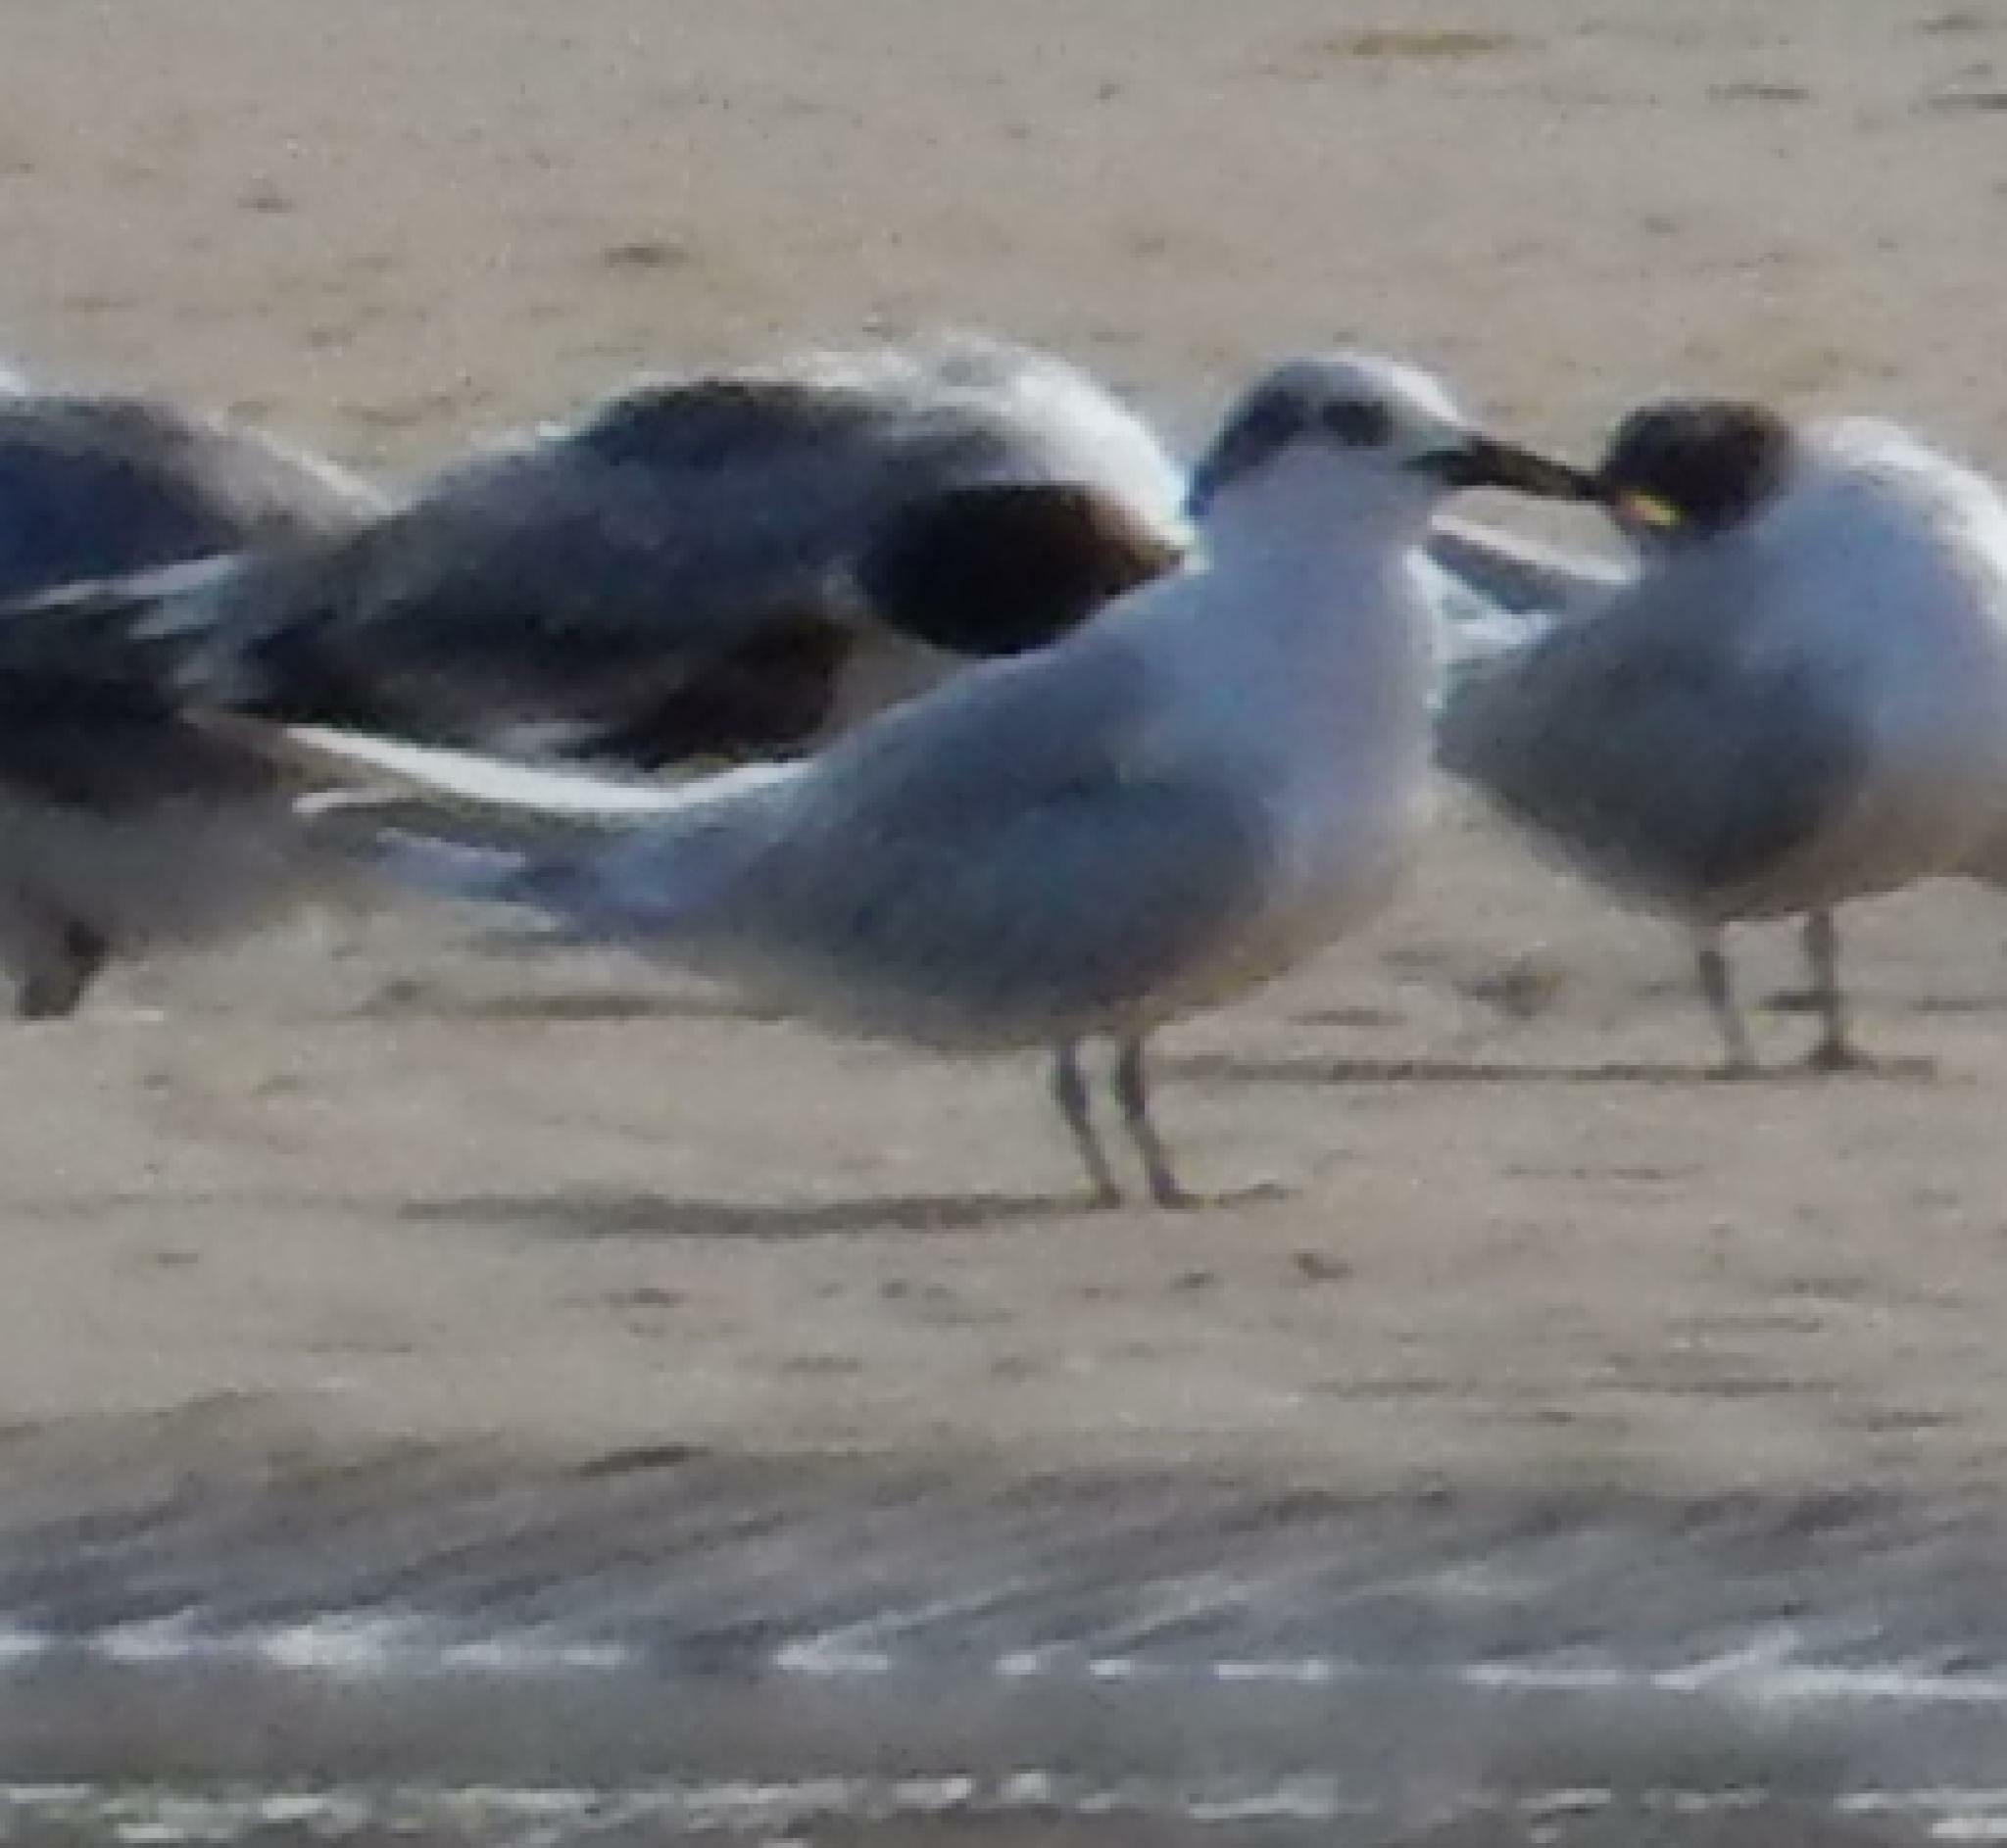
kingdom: Animalia
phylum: Chordata
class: Aves
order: Charadriiformes
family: Laridae
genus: Thalasseus
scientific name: Thalasseus sandvicensis
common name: Sandwich tern
